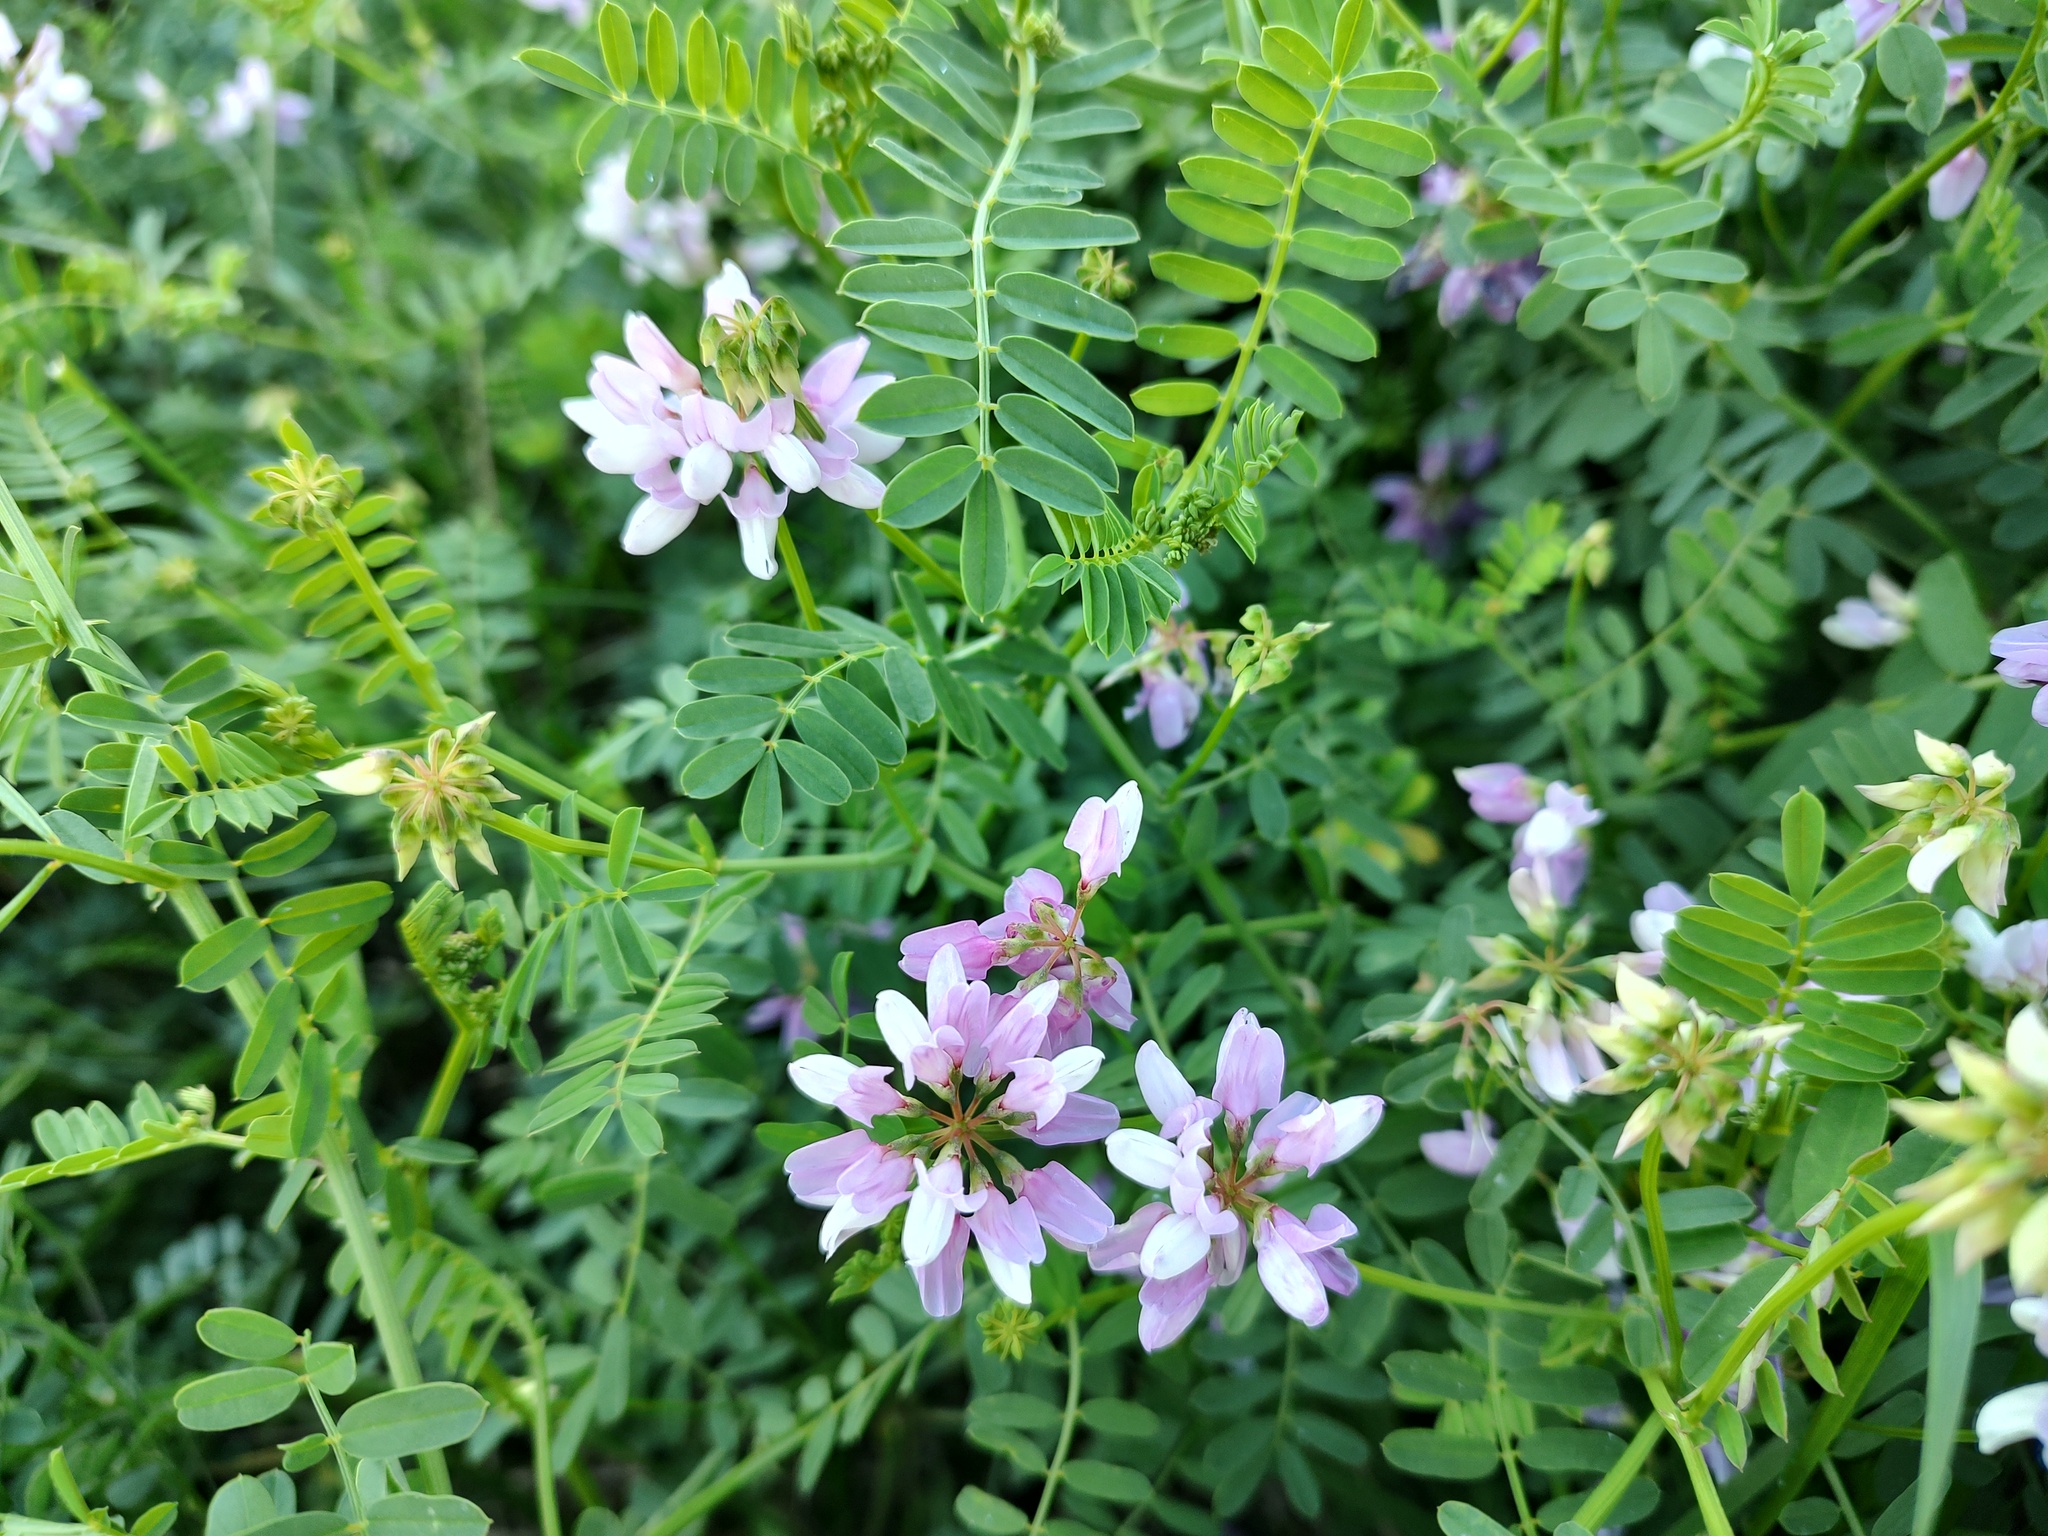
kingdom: Plantae
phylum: Tracheophyta
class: Magnoliopsida
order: Fabales
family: Fabaceae
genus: Coronilla
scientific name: Coronilla varia
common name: Crownvetch
